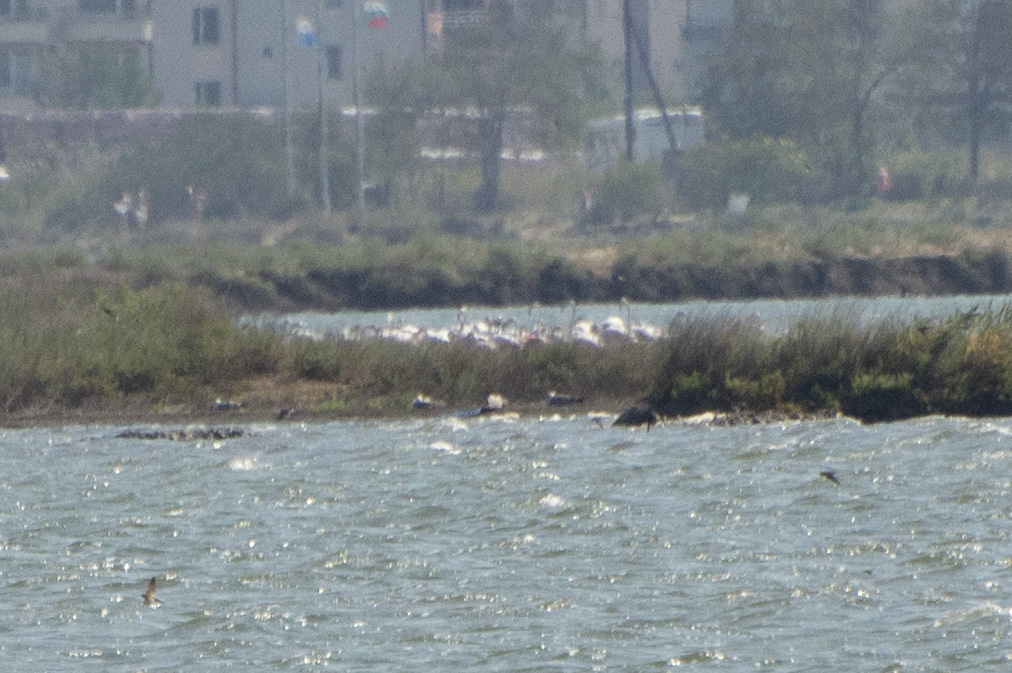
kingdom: Animalia
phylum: Chordata
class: Aves
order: Phoenicopteriformes
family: Phoenicopteridae
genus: Phoenicopterus
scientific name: Phoenicopterus roseus
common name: Greater flamingo
